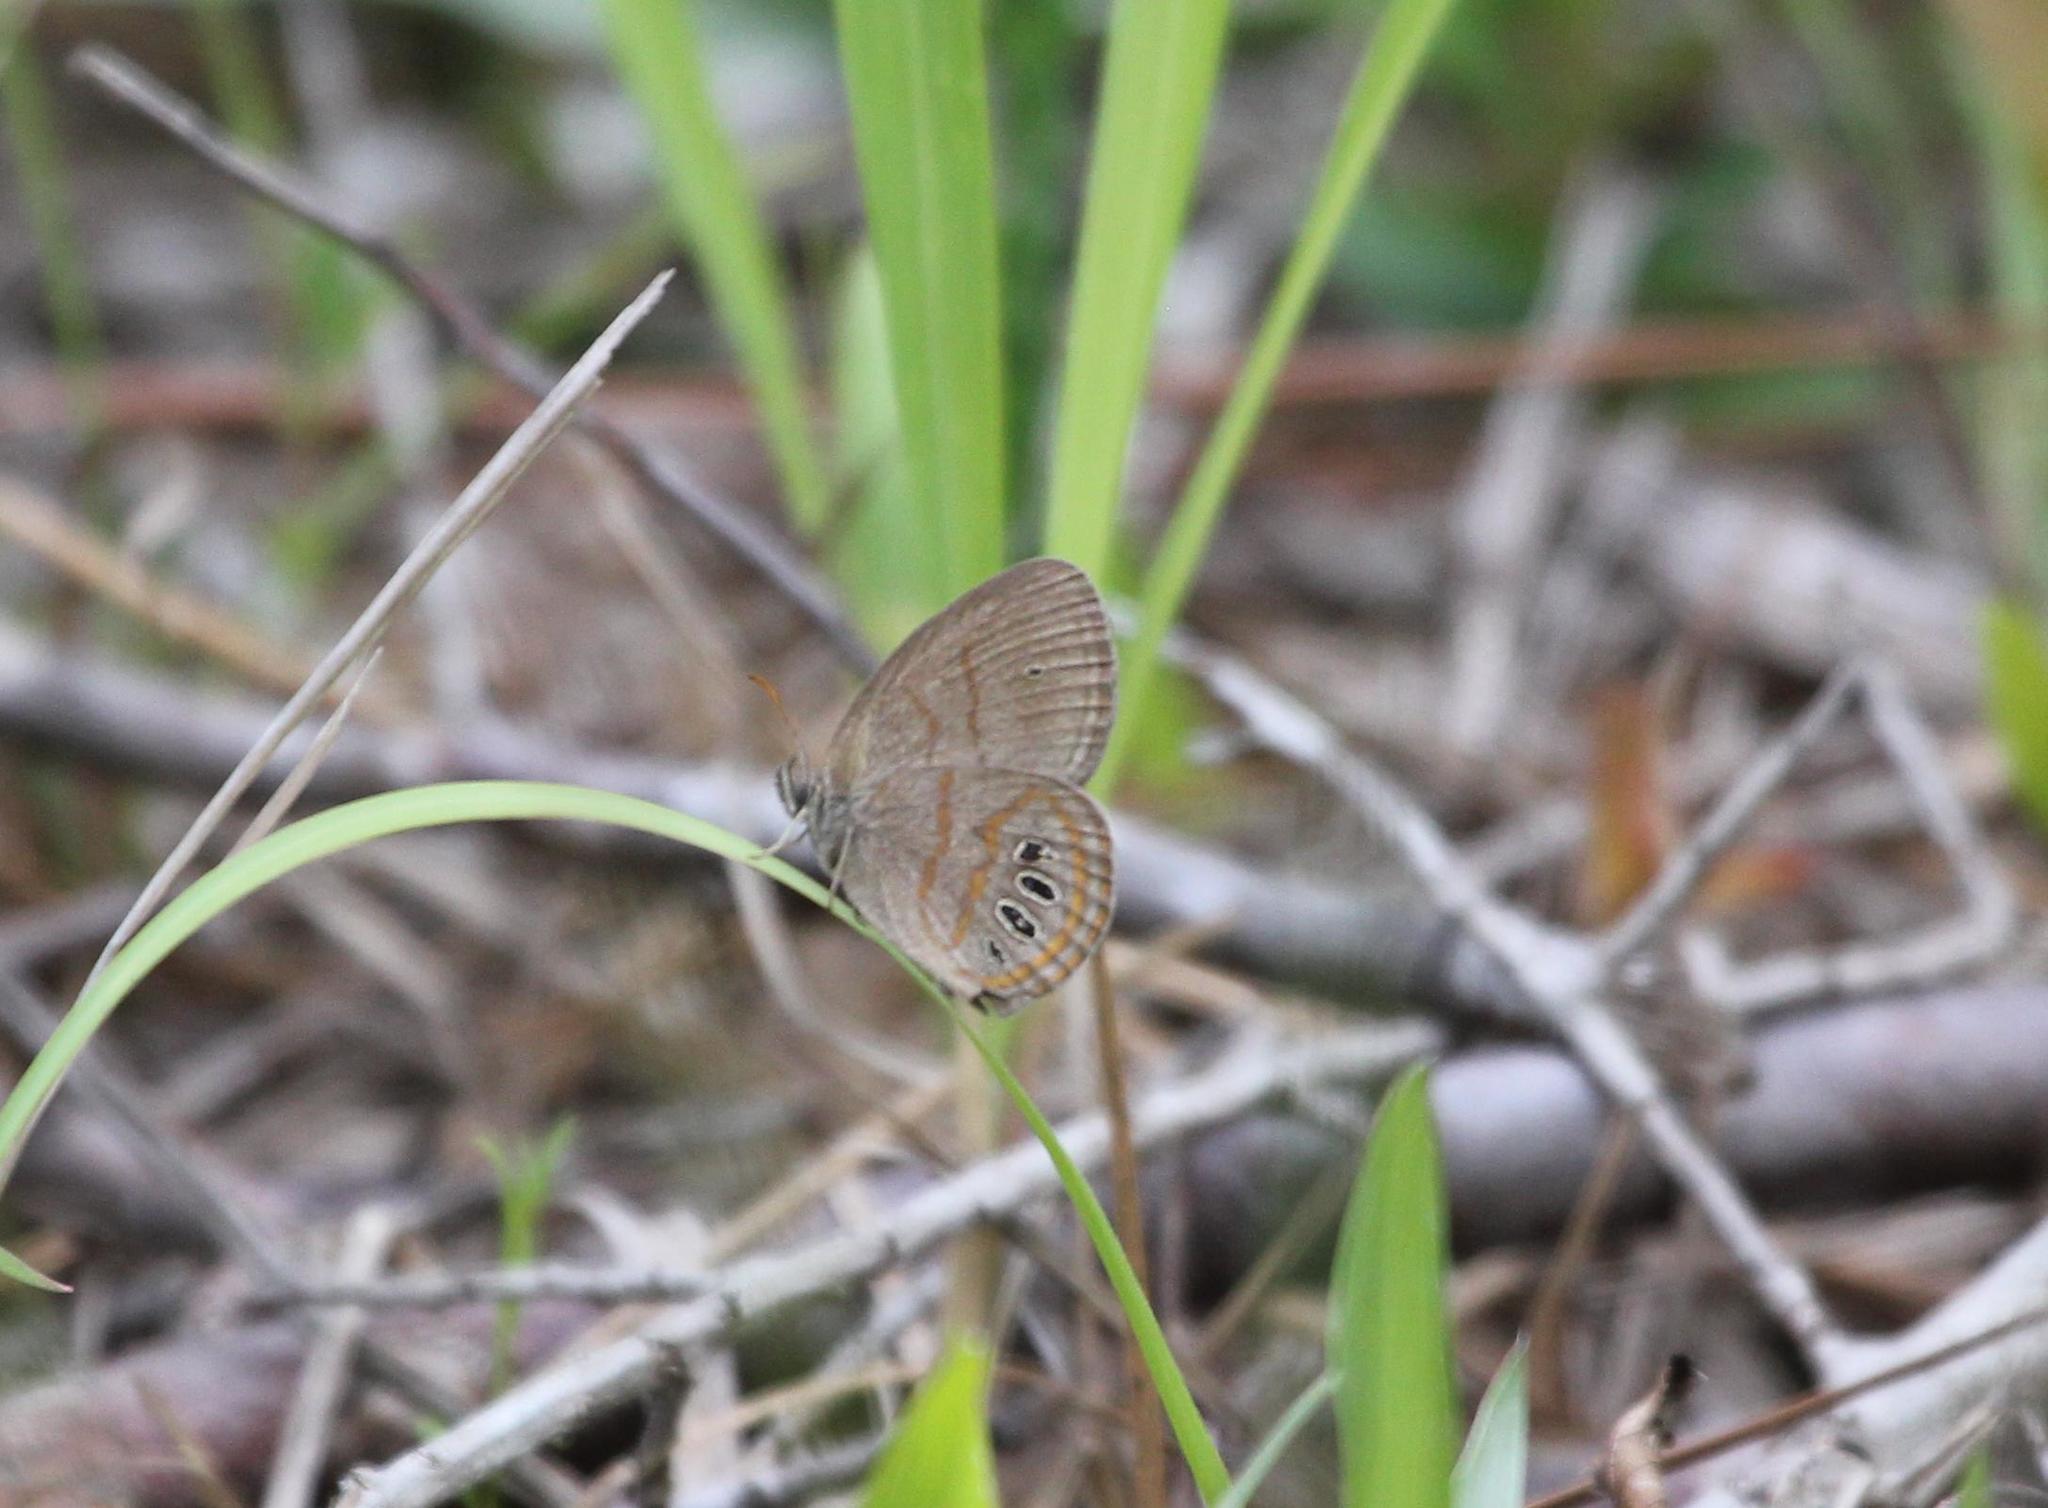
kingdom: Animalia
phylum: Arthropoda
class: Insecta
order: Lepidoptera
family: Nymphalidae
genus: Euptychia
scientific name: Euptychia phocion
